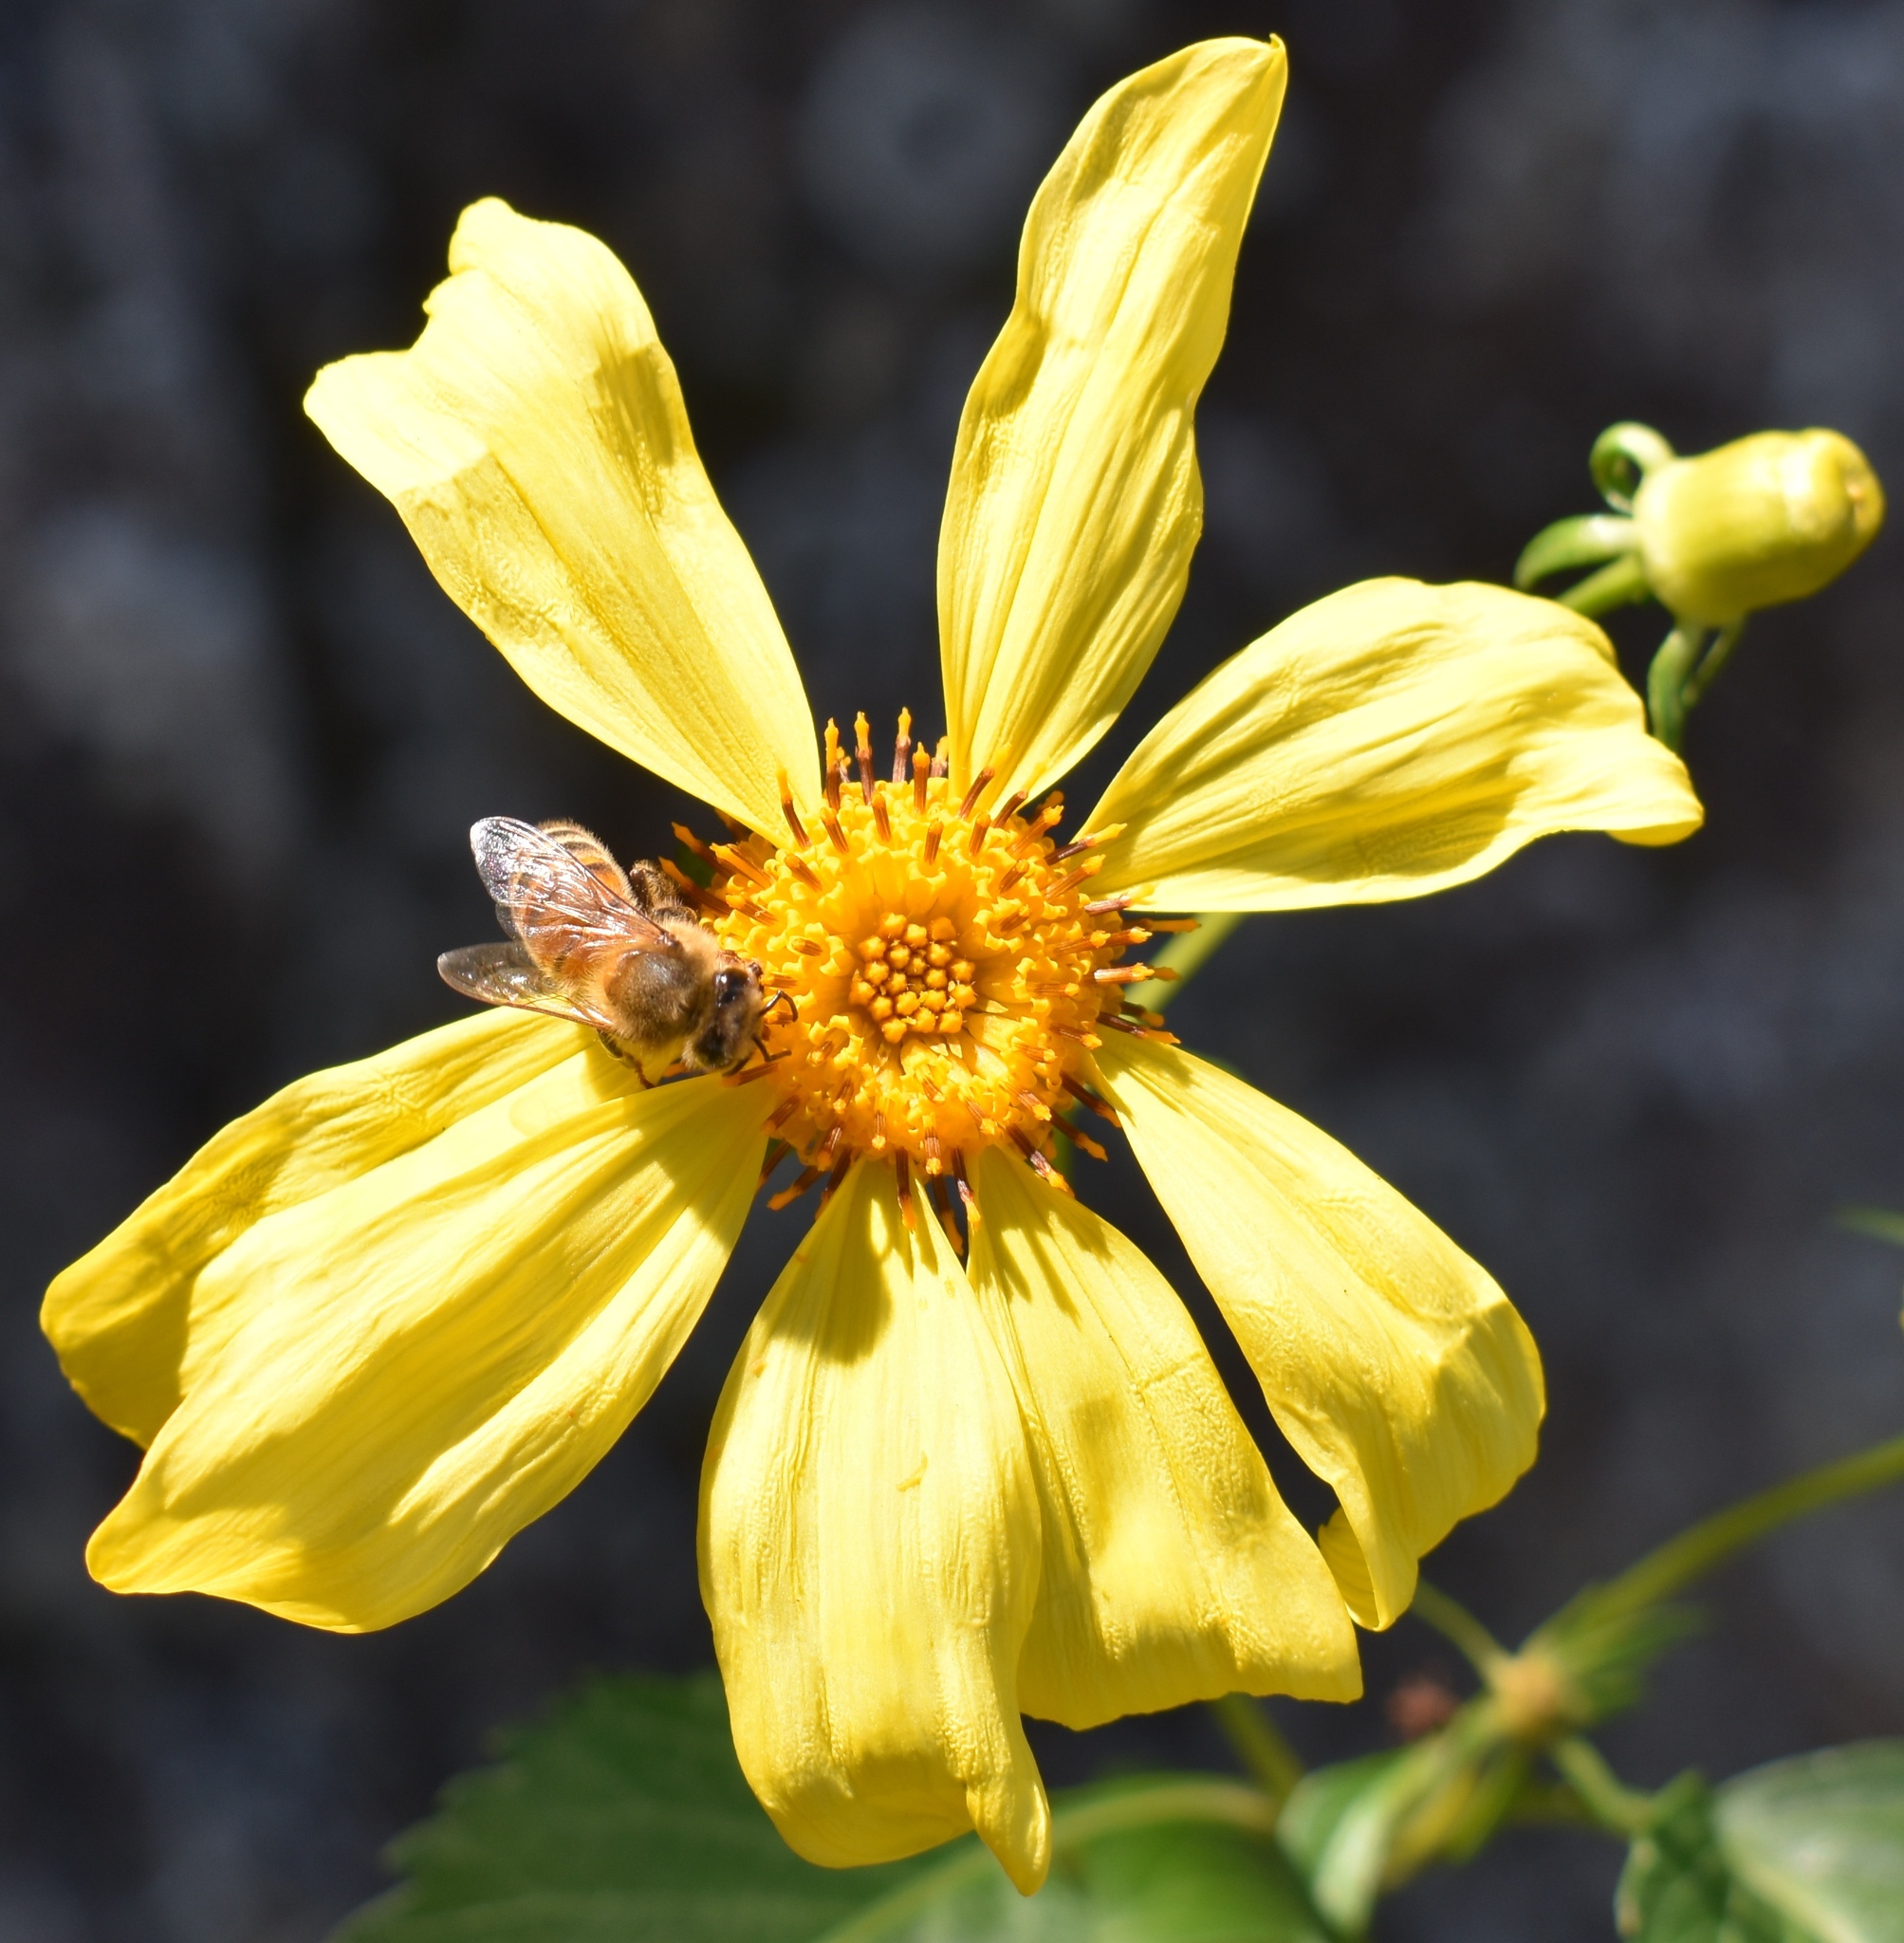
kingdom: Animalia
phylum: Arthropoda
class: Insecta
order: Hymenoptera
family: Apidae
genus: Apis
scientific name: Apis mellifera
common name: Honey bee
